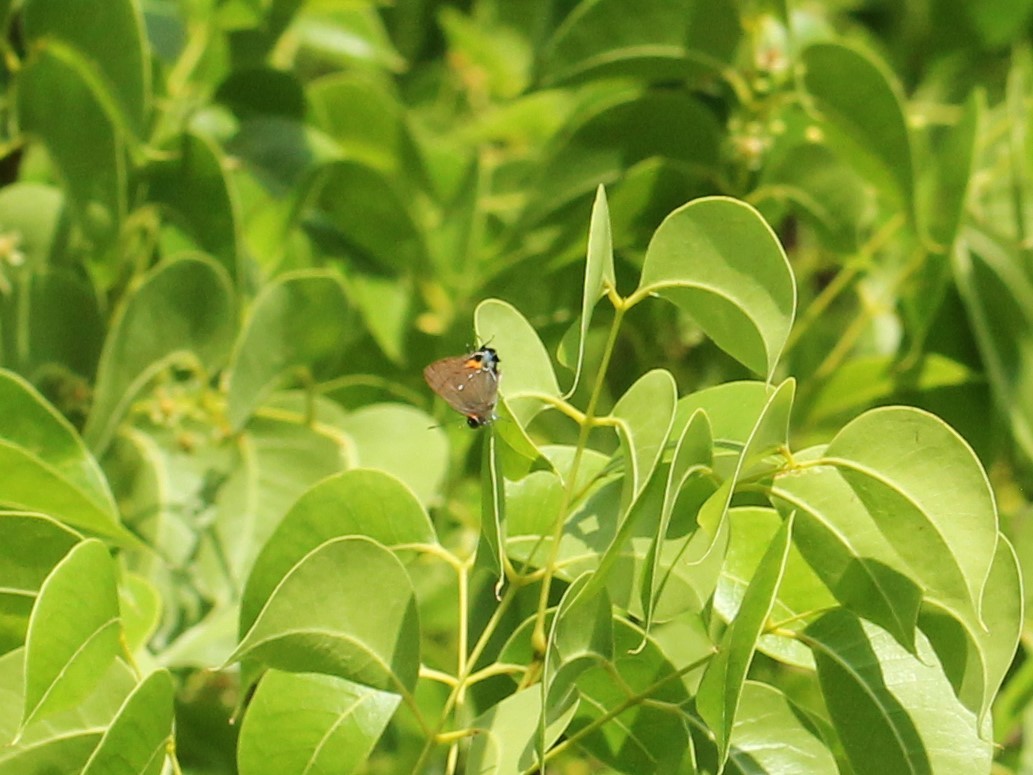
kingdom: Animalia
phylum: Arthropoda
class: Insecta
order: Lepidoptera
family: Lycaenidae
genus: Thecla
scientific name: Thecla angelia
